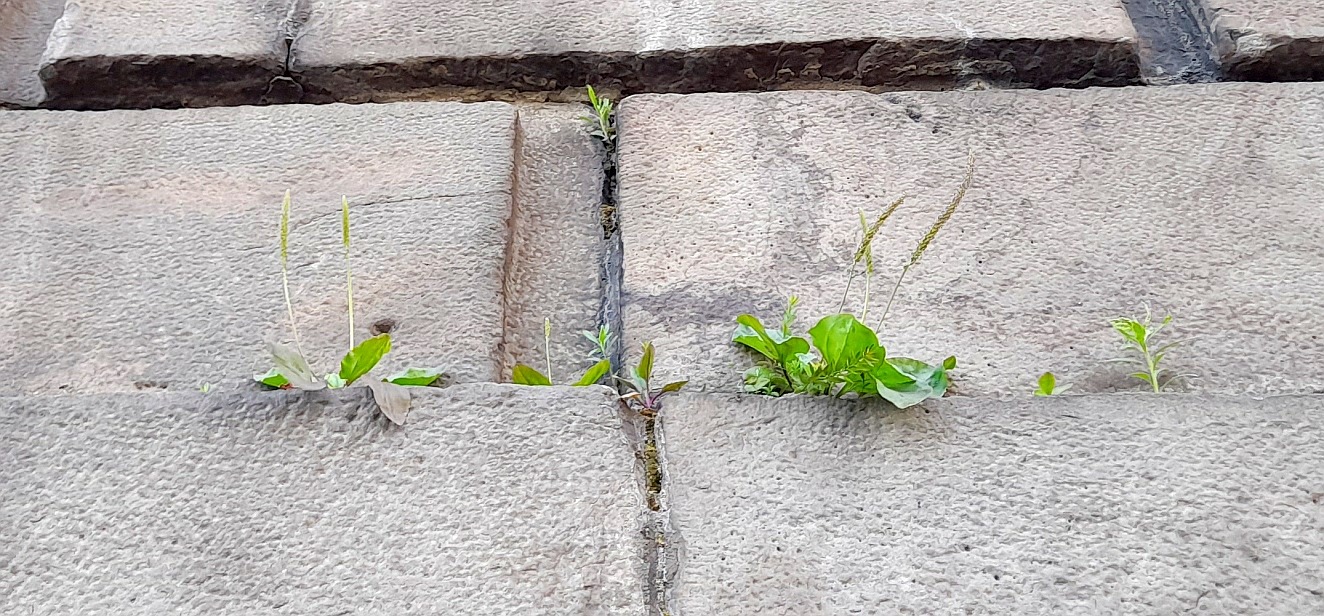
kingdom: Plantae
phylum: Tracheophyta
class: Magnoliopsida
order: Lamiales
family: Plantaginaceae
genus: Plantago
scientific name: Plantago major
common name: Common plantain
